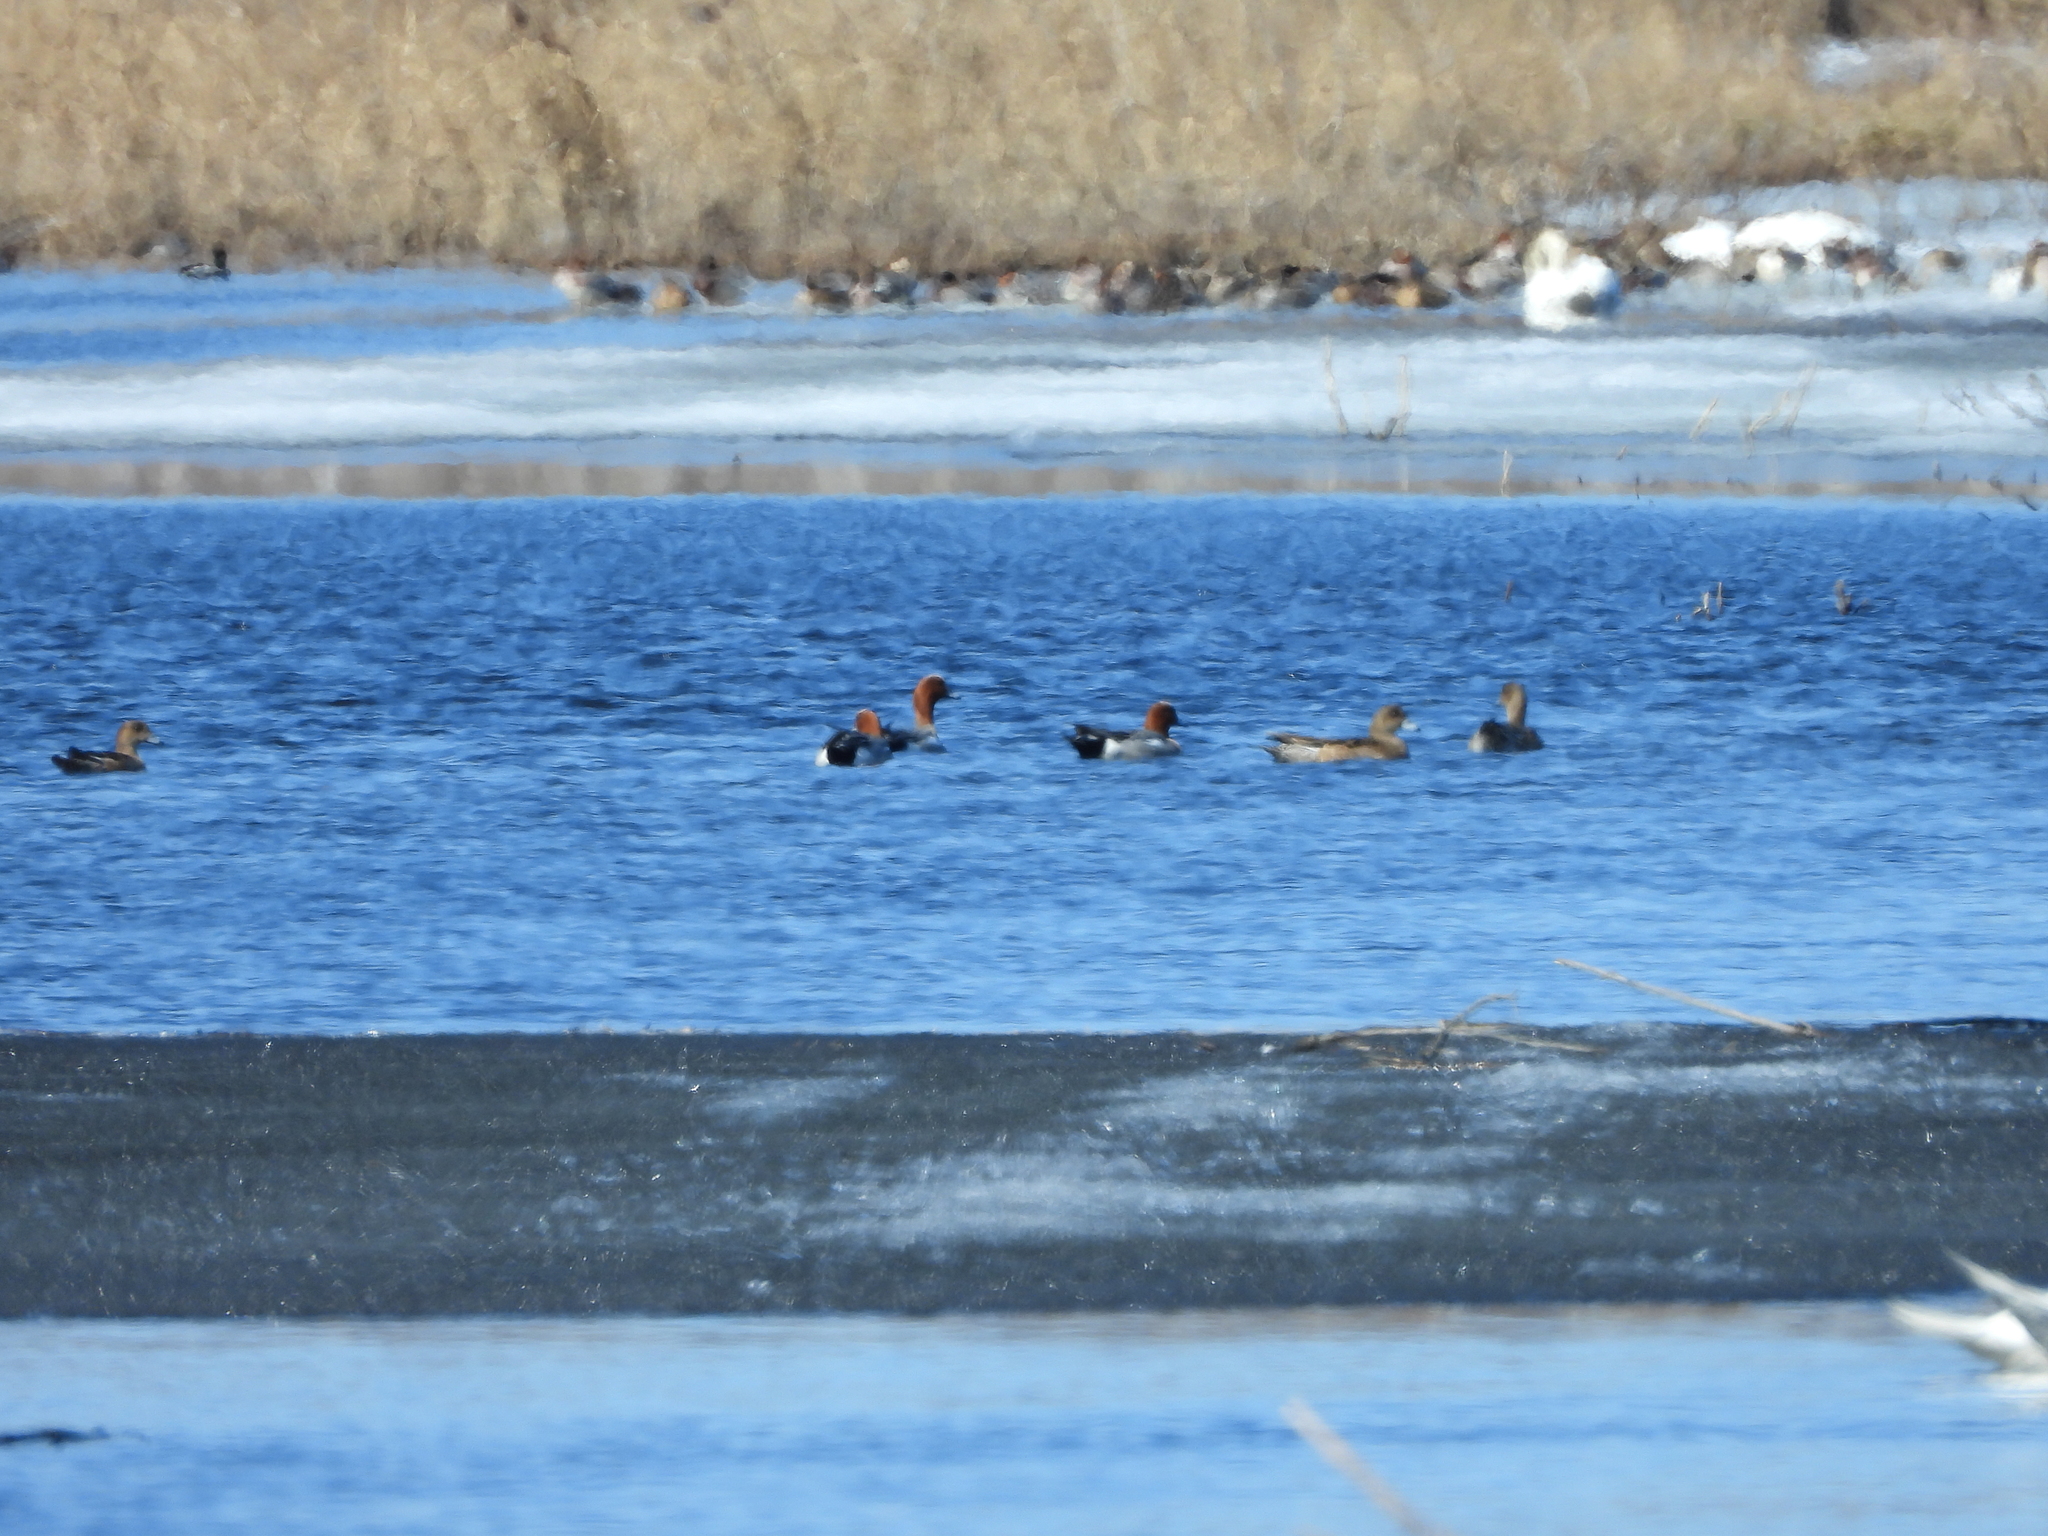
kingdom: Animalia
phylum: Chordata
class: Aves
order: Anseriformes
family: Anatidae
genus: Mareca
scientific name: Mareca penelope
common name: Eurasian wigeon
